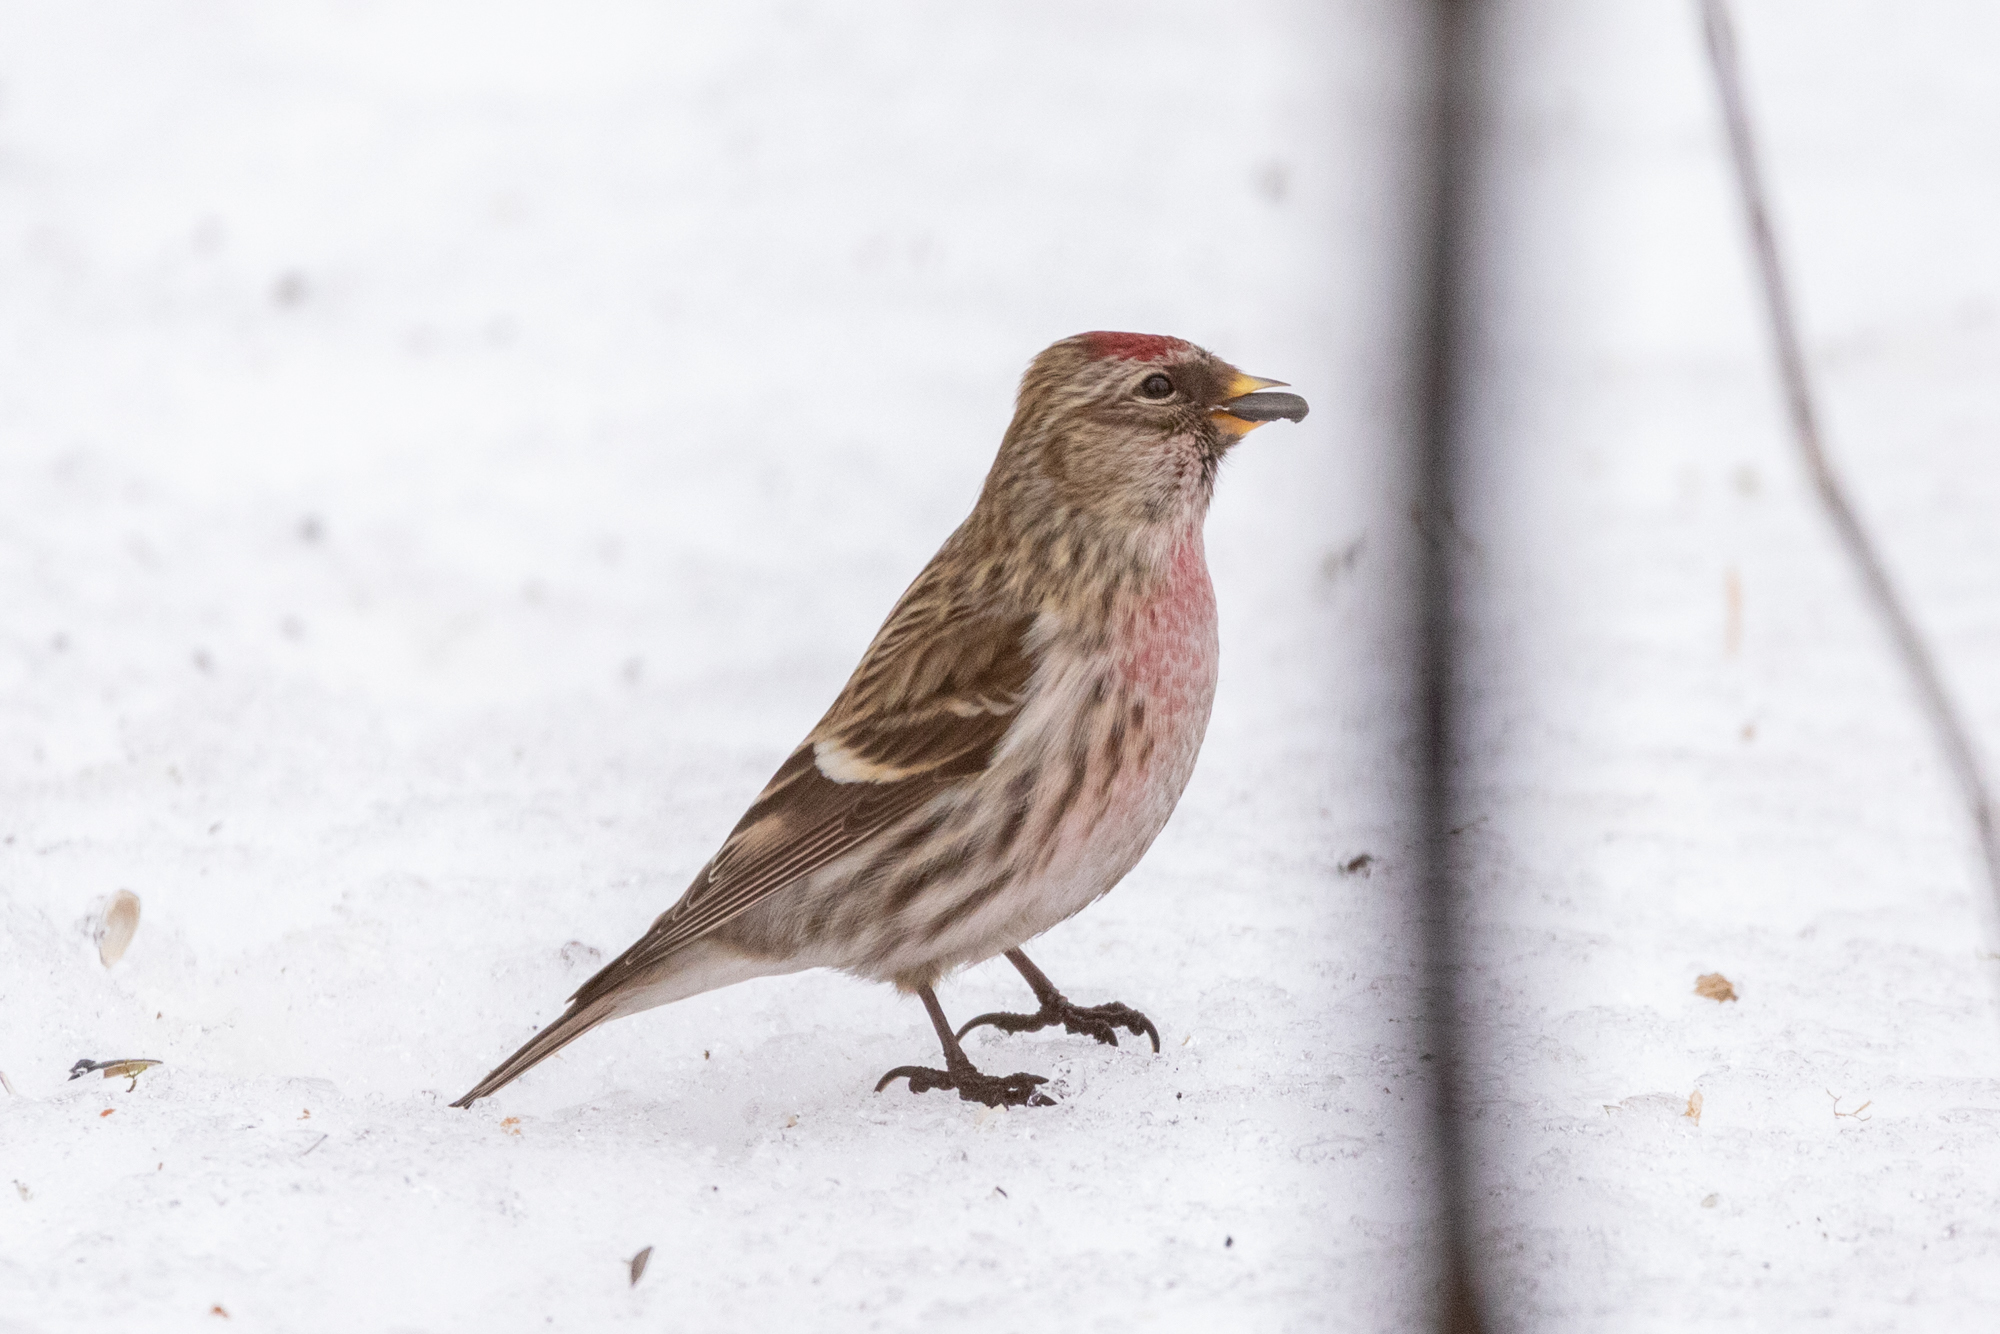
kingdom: Animalia
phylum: Chordata
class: Aves
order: Passeriformes
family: Fringillidae
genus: Acanthis
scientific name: Acanthis flammea
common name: Common redpoll
